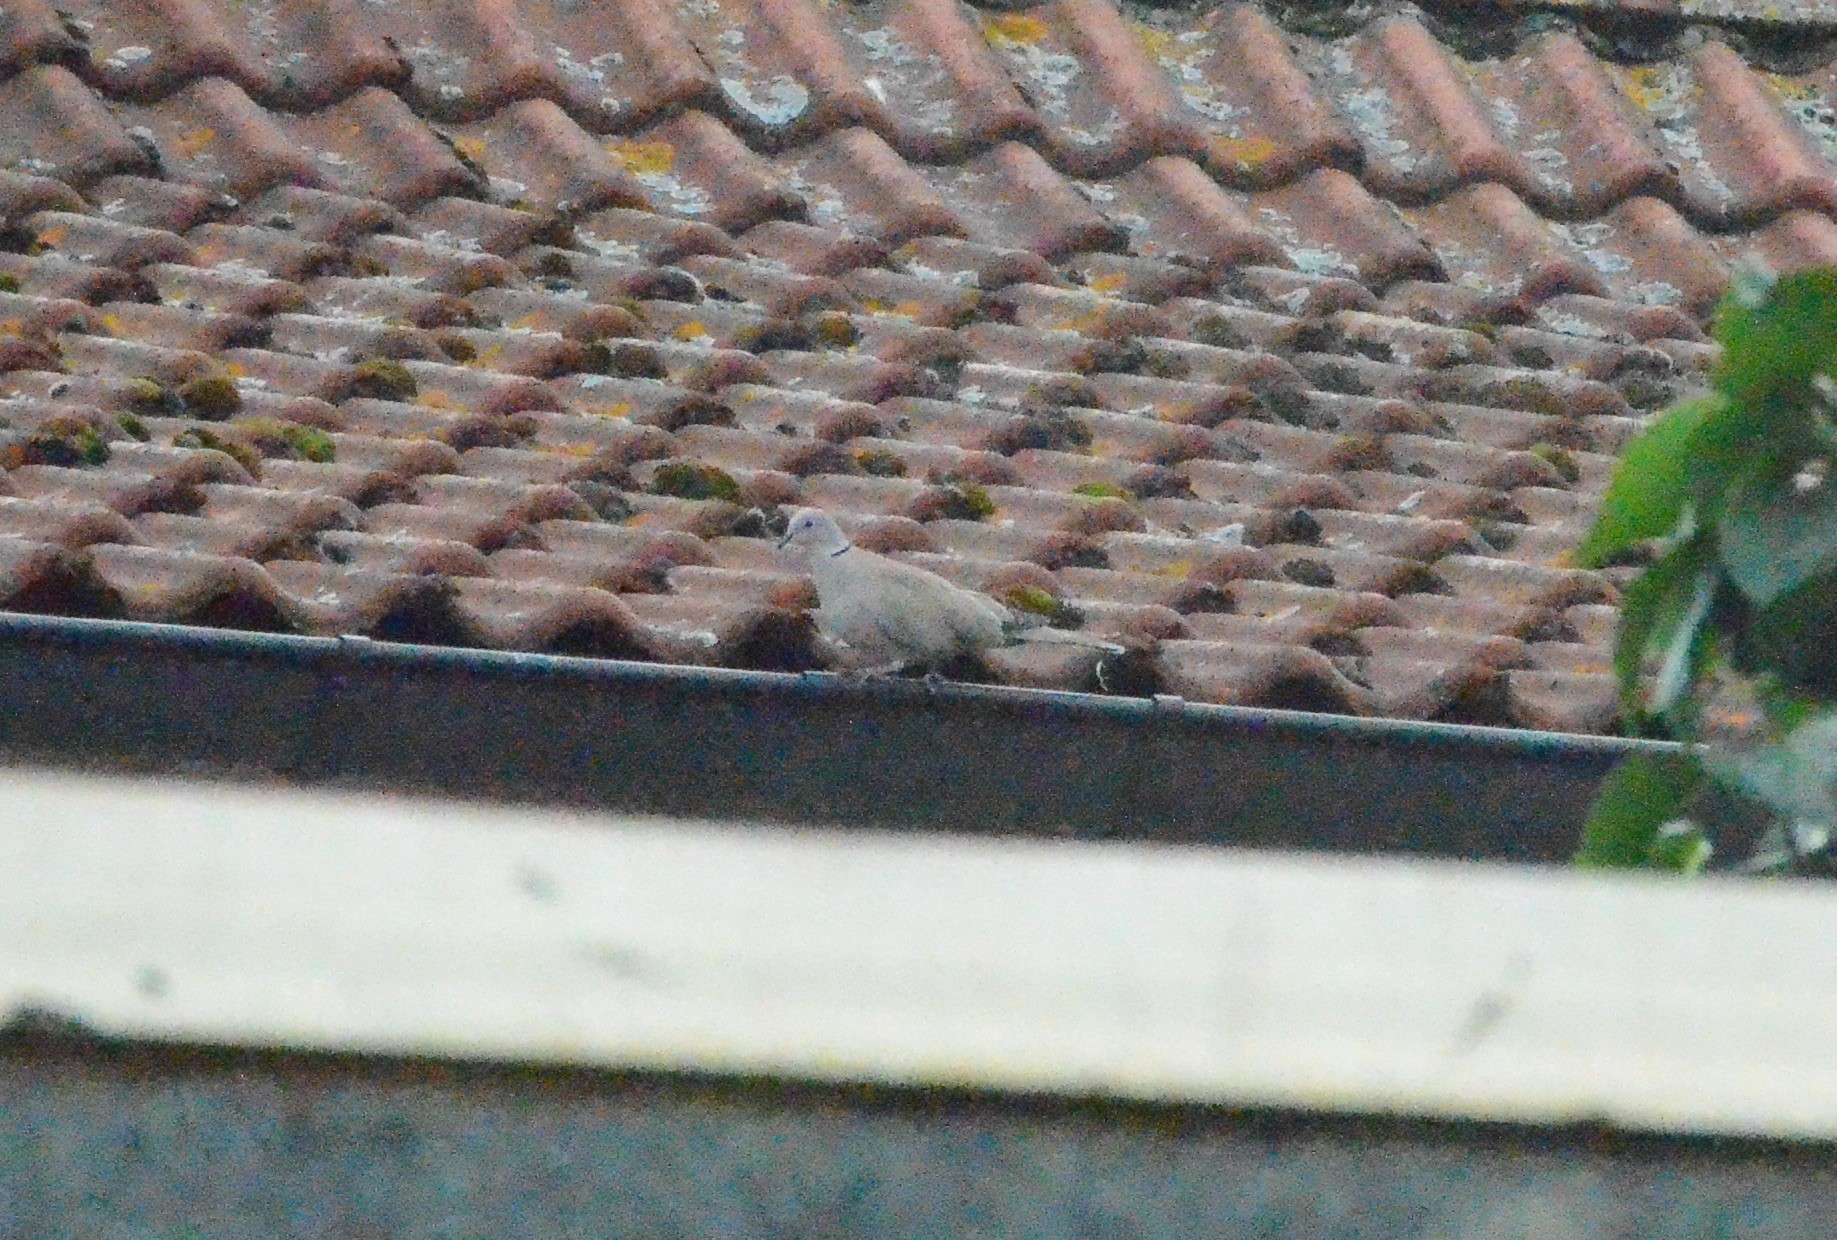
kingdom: Animalia
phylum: Chordata
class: Aves
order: Columbiformes
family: Columbidae
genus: Streptopelia
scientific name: Streptopelia decaocto
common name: Eurasian collared dove
